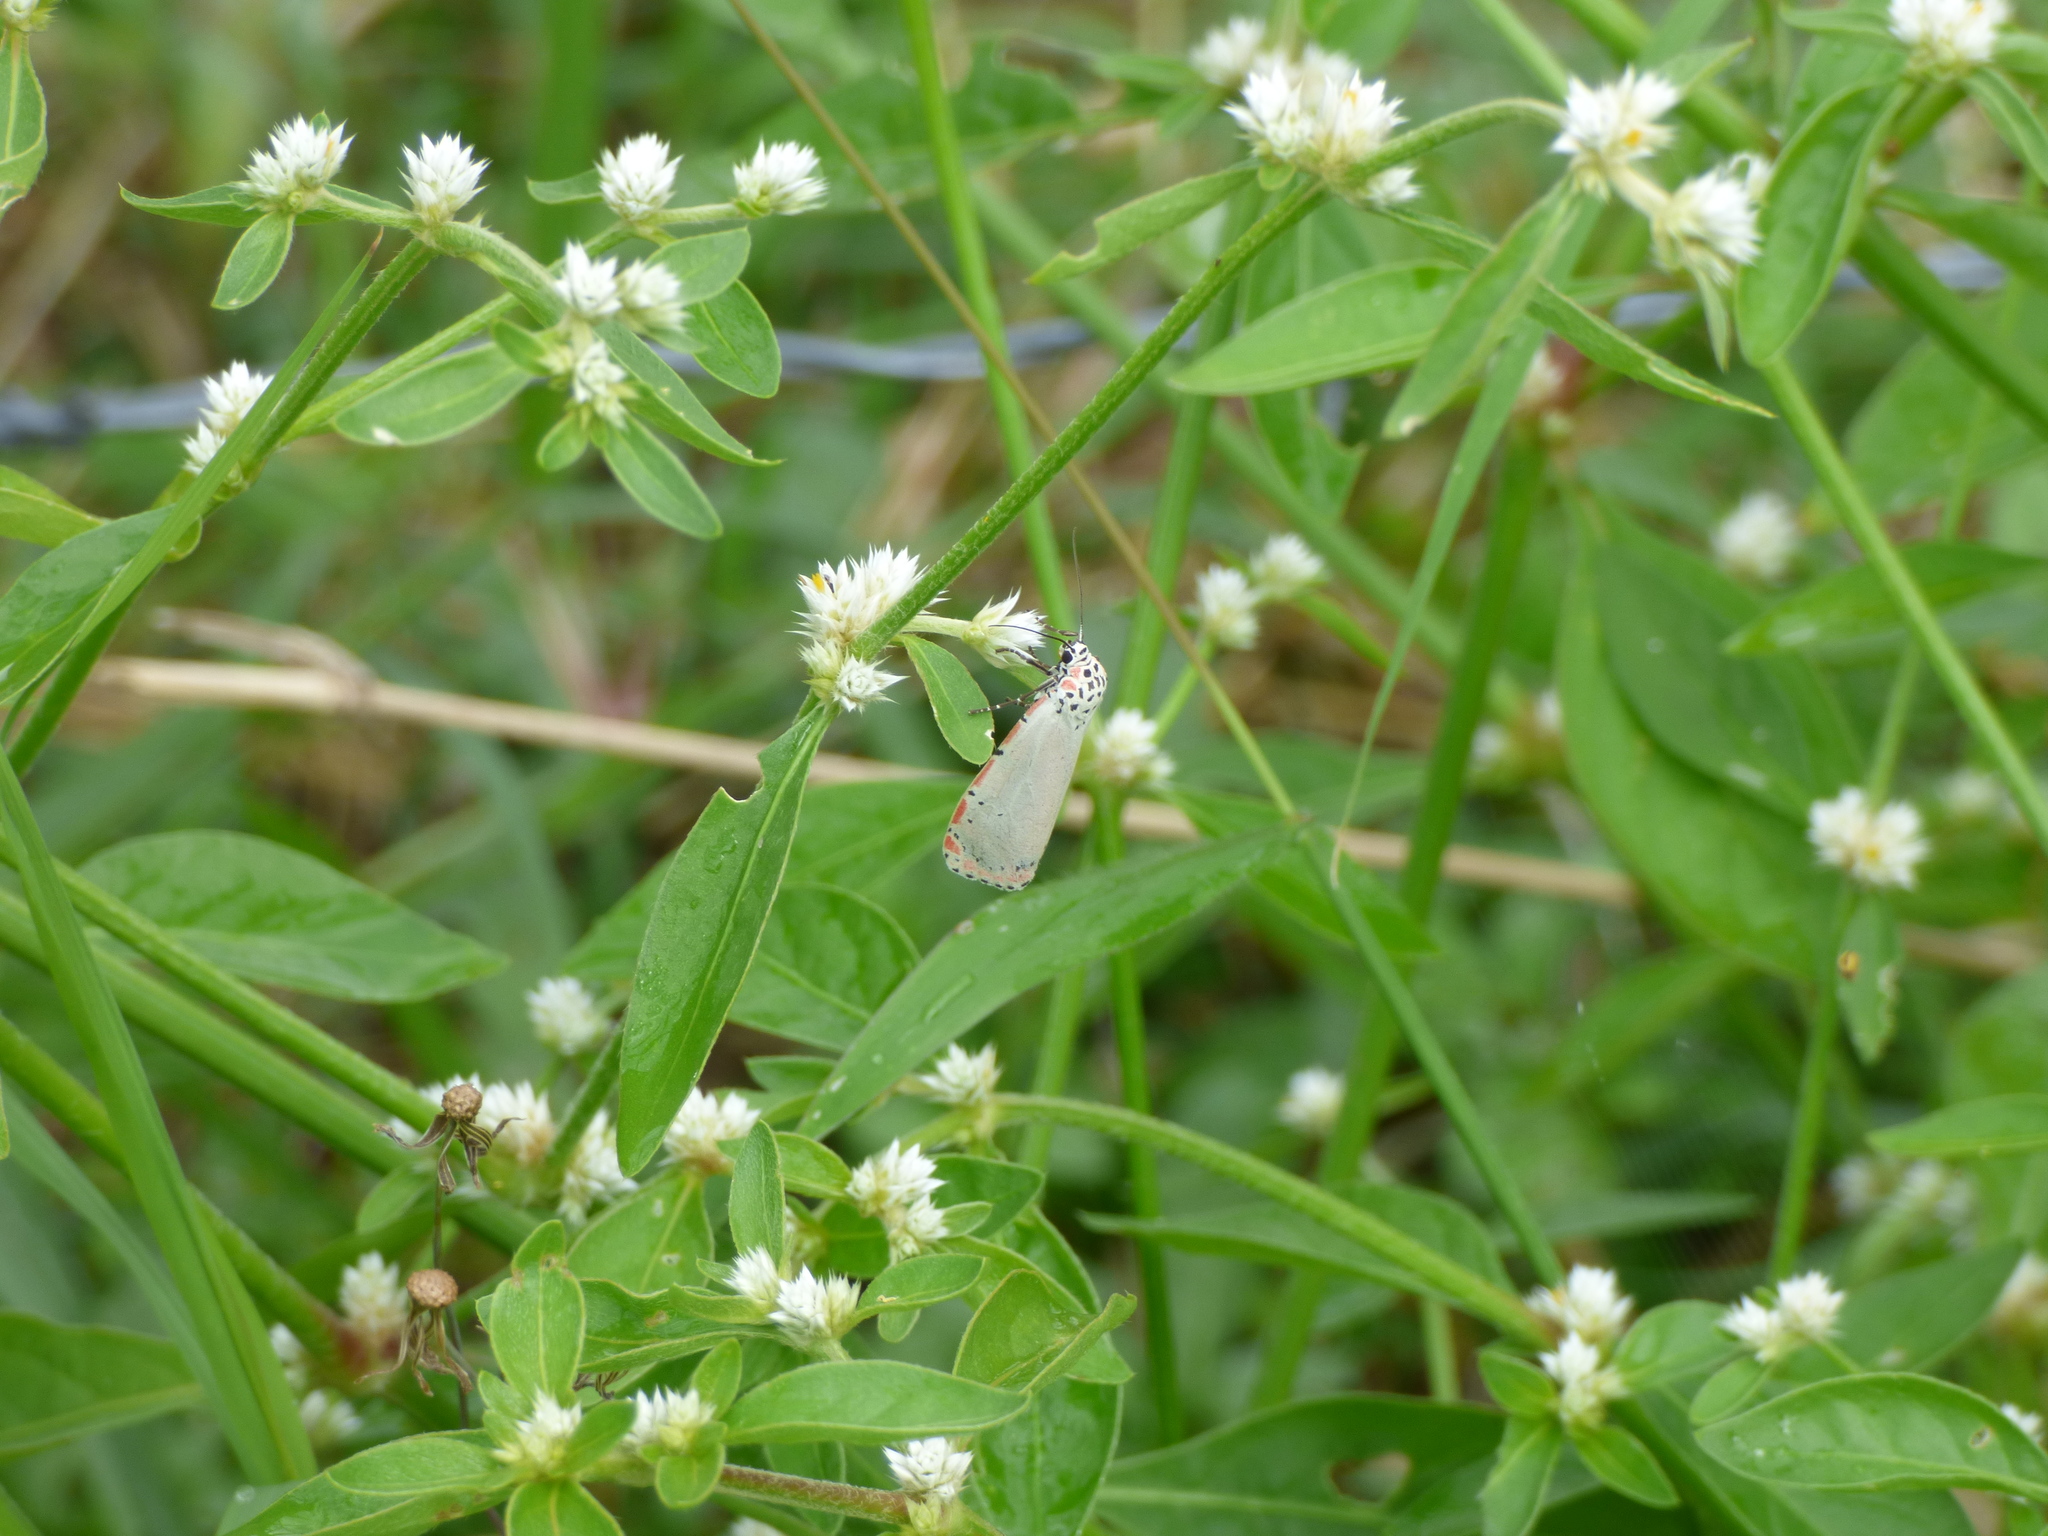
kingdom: Animalia
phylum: Arthropoda
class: Insecta
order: Lepidoptera
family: Erebidae
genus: Utetheisa
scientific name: Utetheisa ornatrix
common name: Beautiful utetheisa
